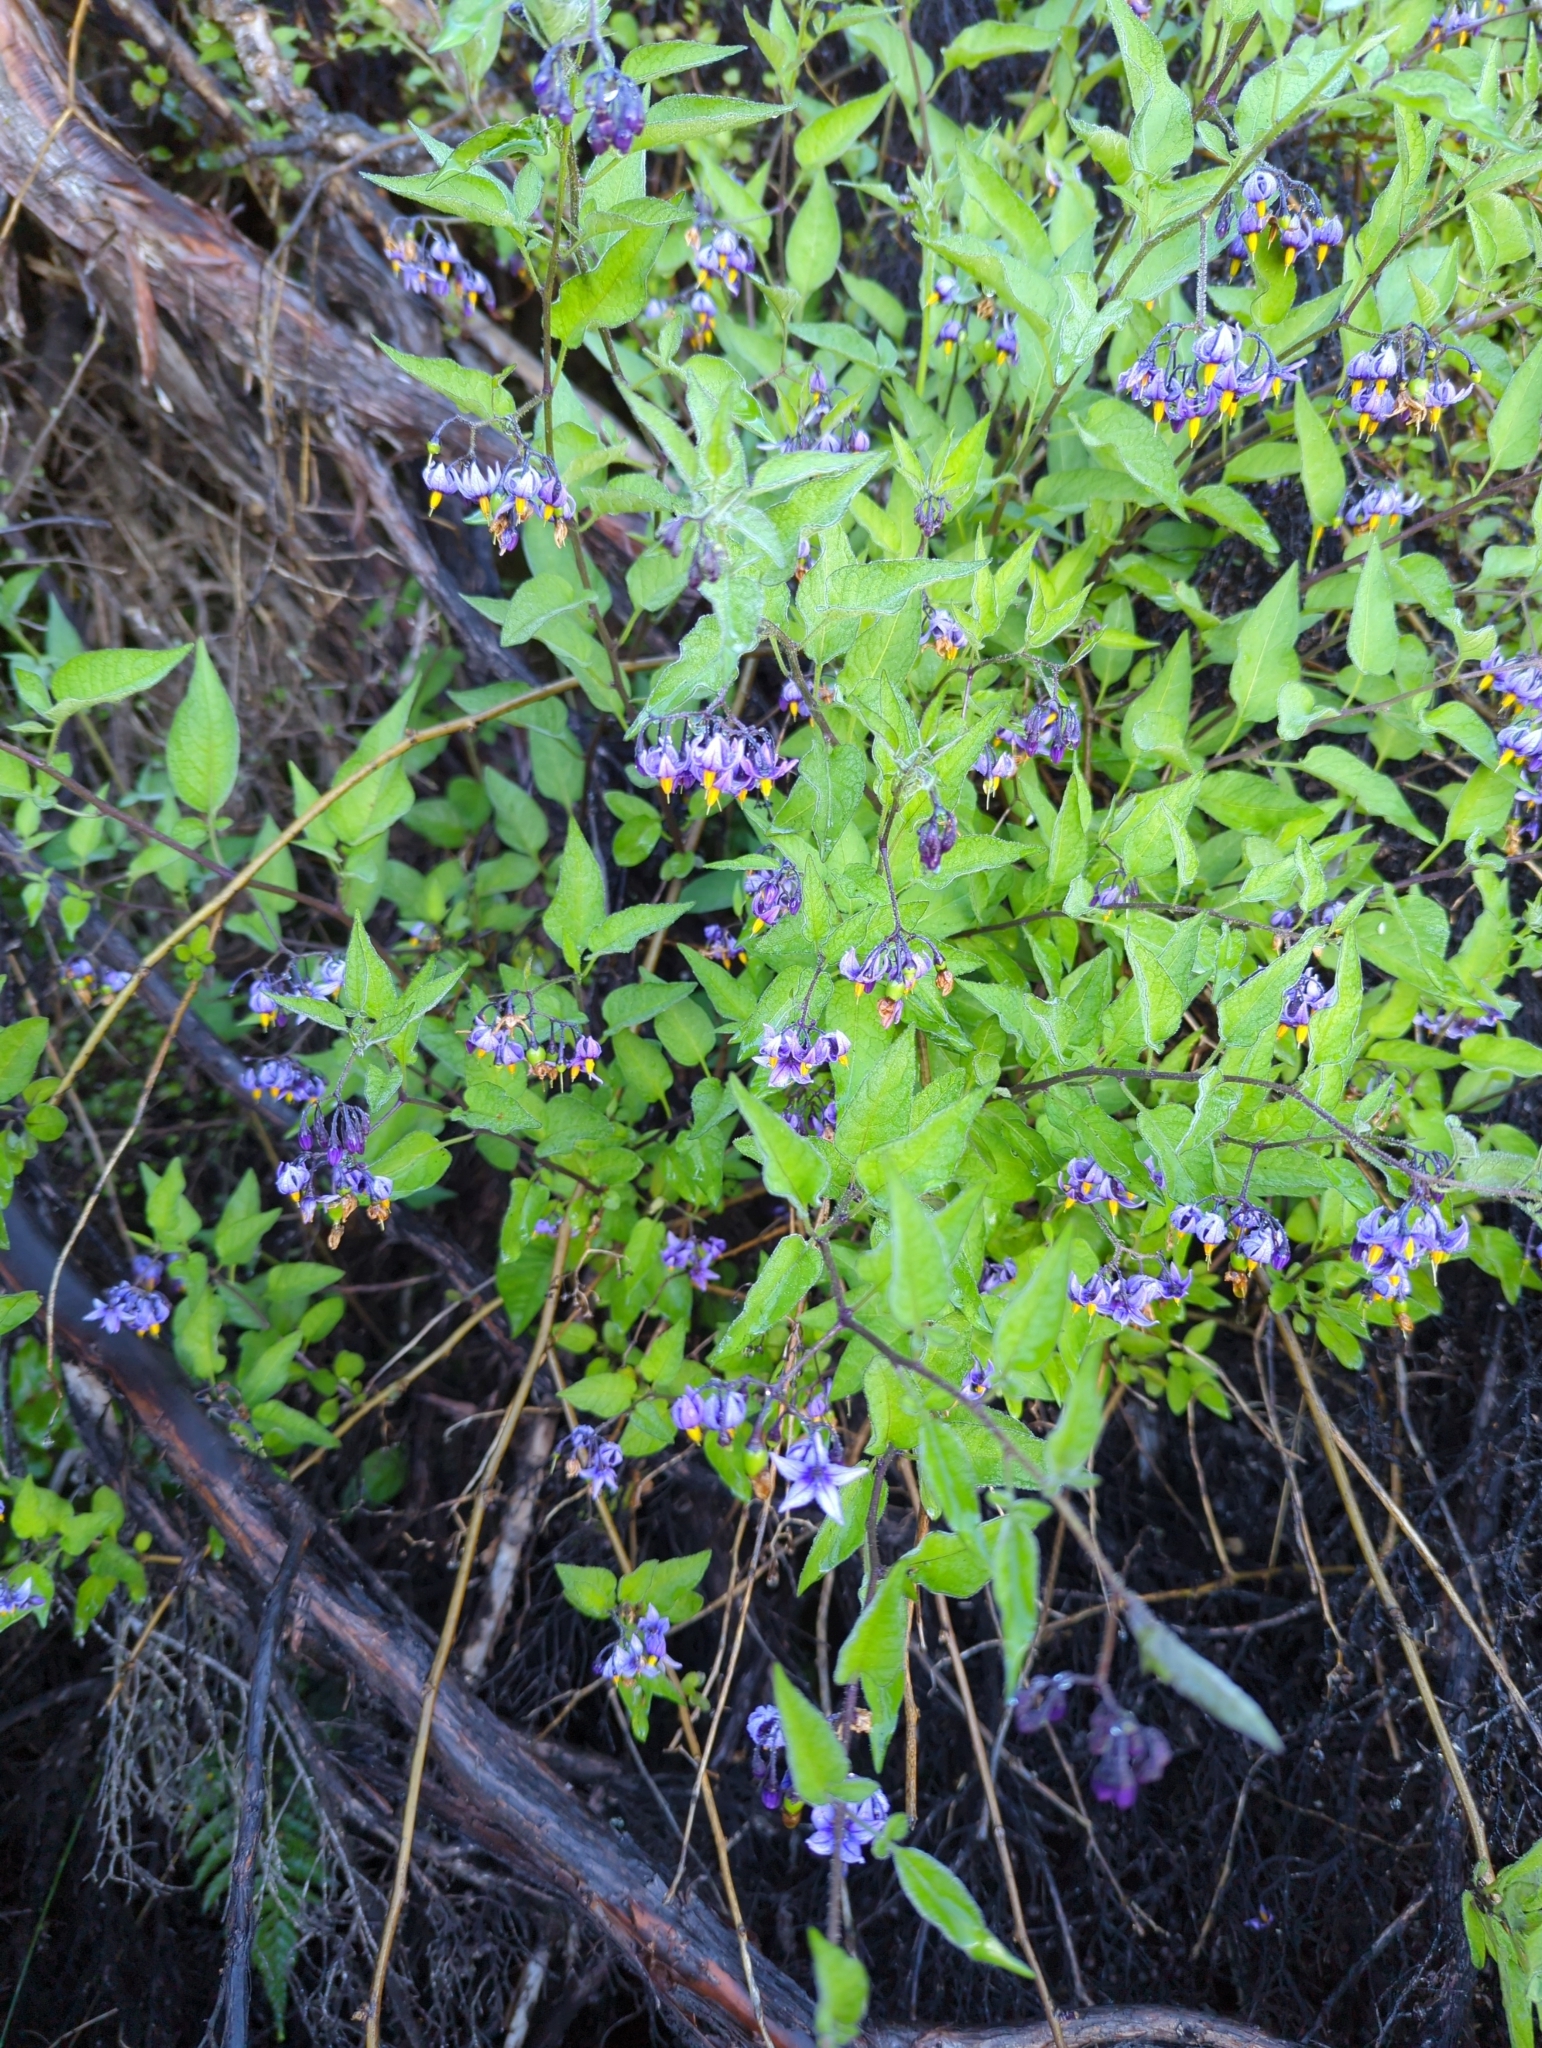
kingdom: Plantae
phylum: Tracheophyta
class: Magnoliopsida
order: Solanales
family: Solanaceae
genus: Solanum
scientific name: Solanum dulcamara
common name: Climbing nightshade
